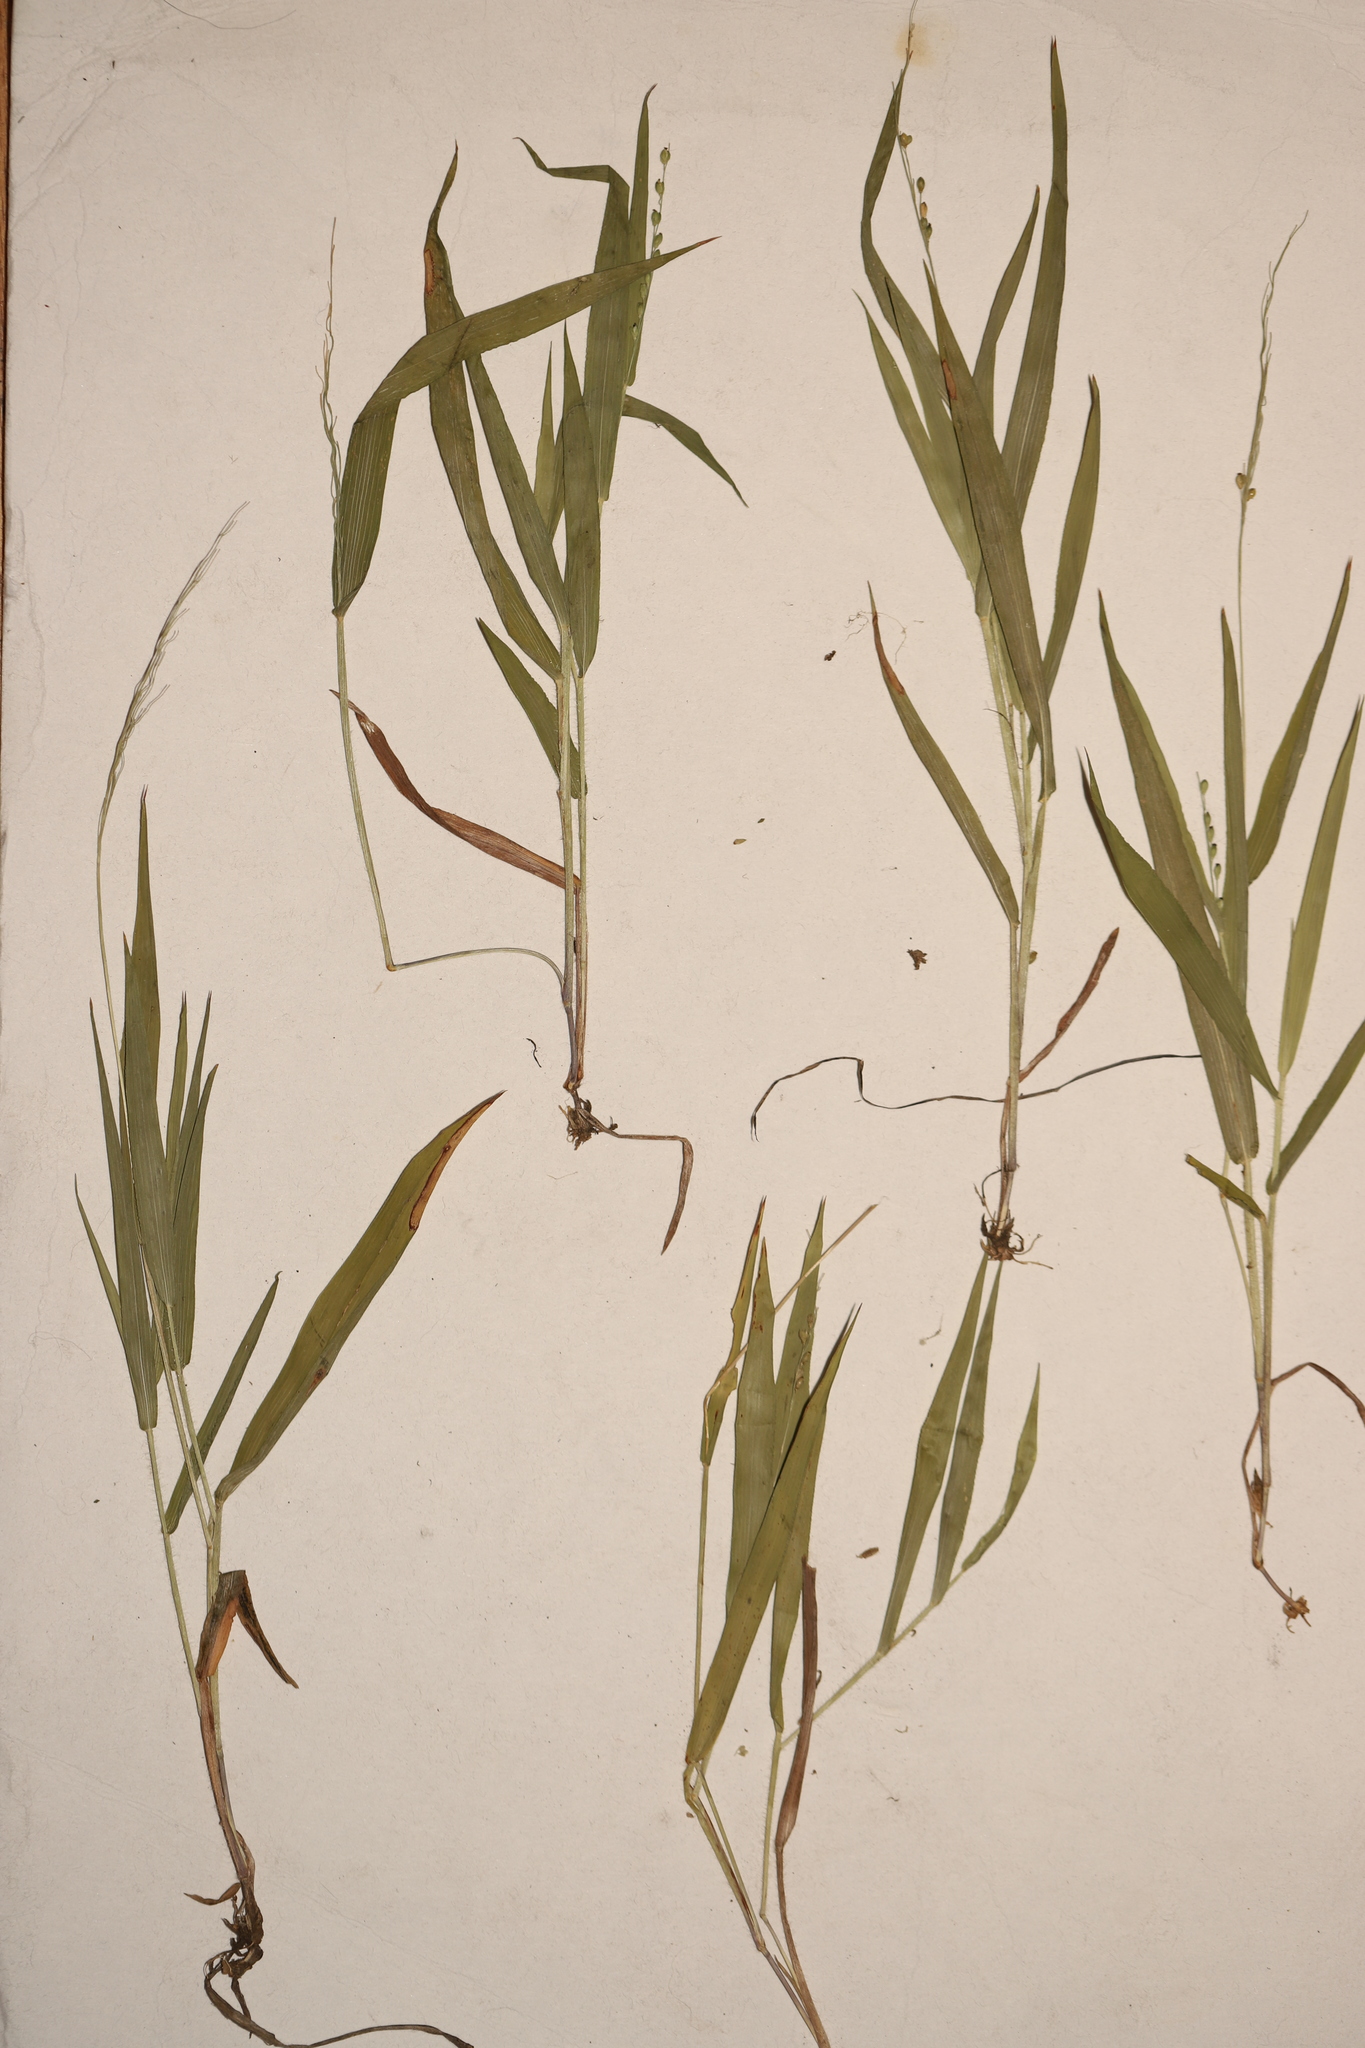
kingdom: Plantae
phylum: Tracheophyta
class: Liliopsida
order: Poales
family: Poaceae
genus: Dichanthelium
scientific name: Dichanthelium xanthophysum
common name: Pale panicgrass
